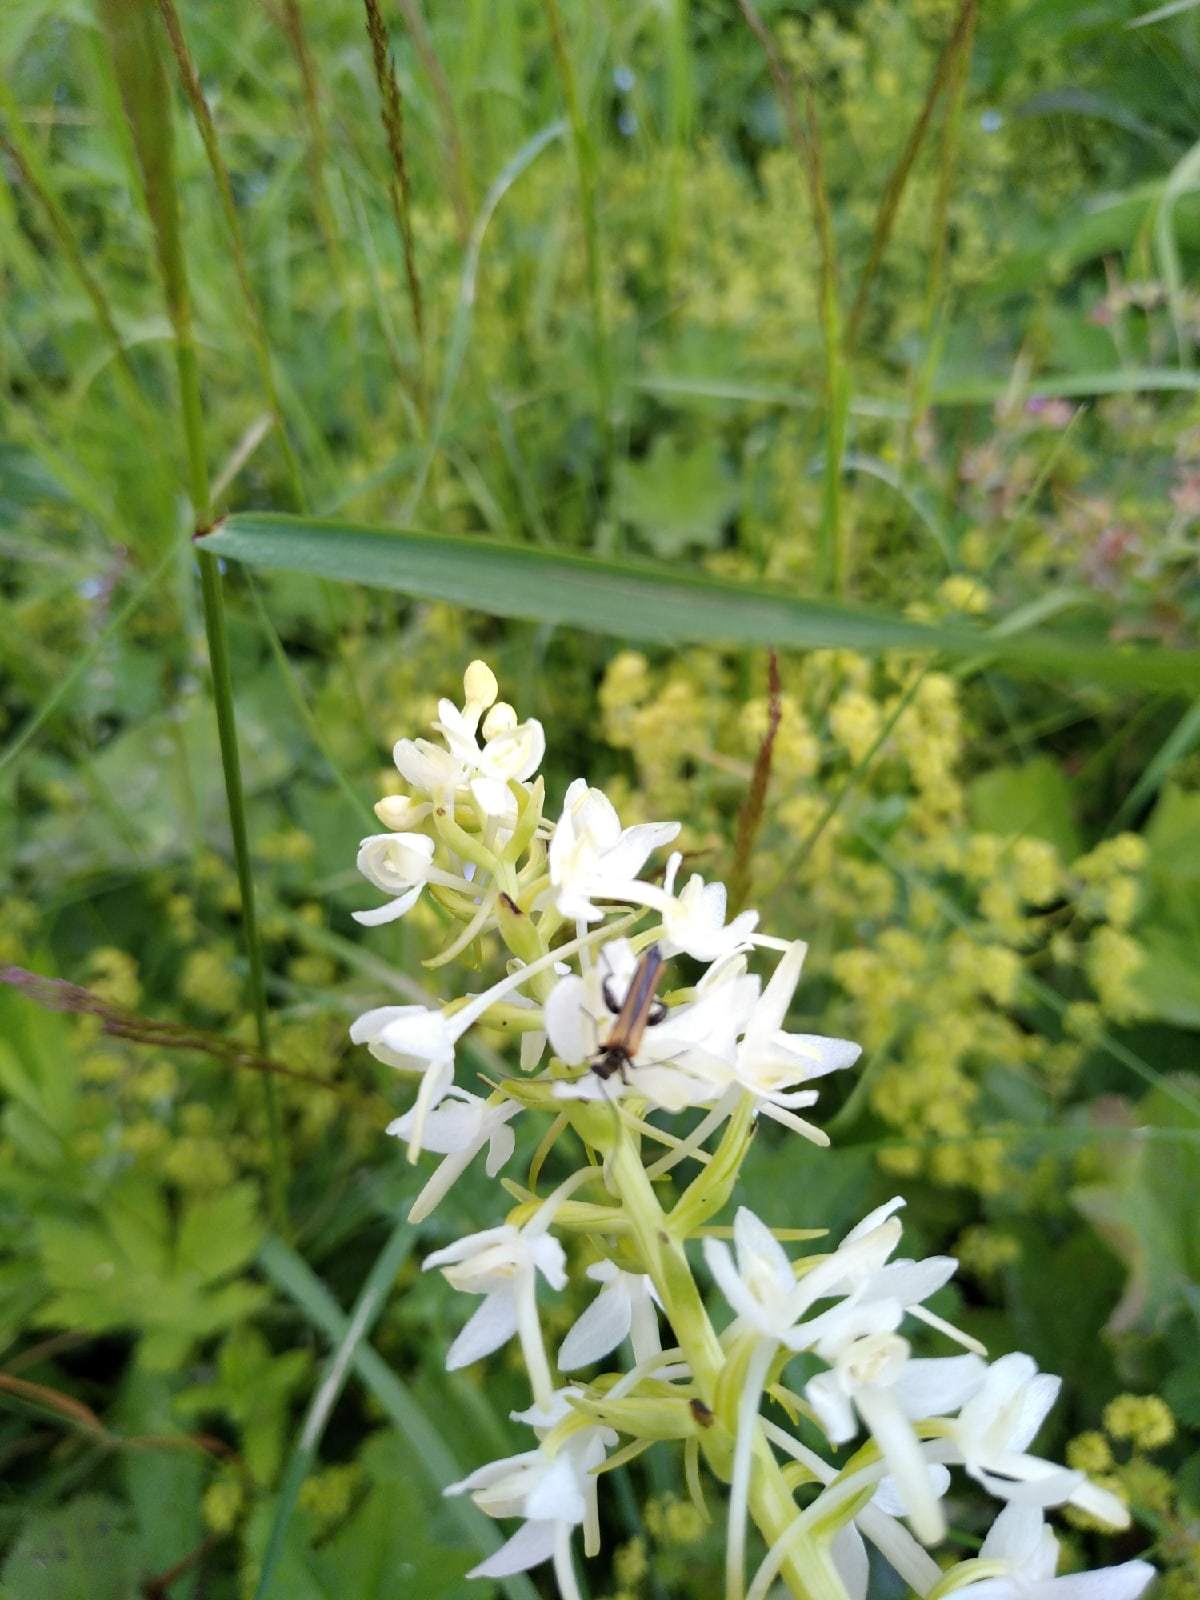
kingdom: Animalia
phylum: Arthropoda
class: Insecta
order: Coleoptera
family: Oedemeridae
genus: Oedemera
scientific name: Oedemera femorata
